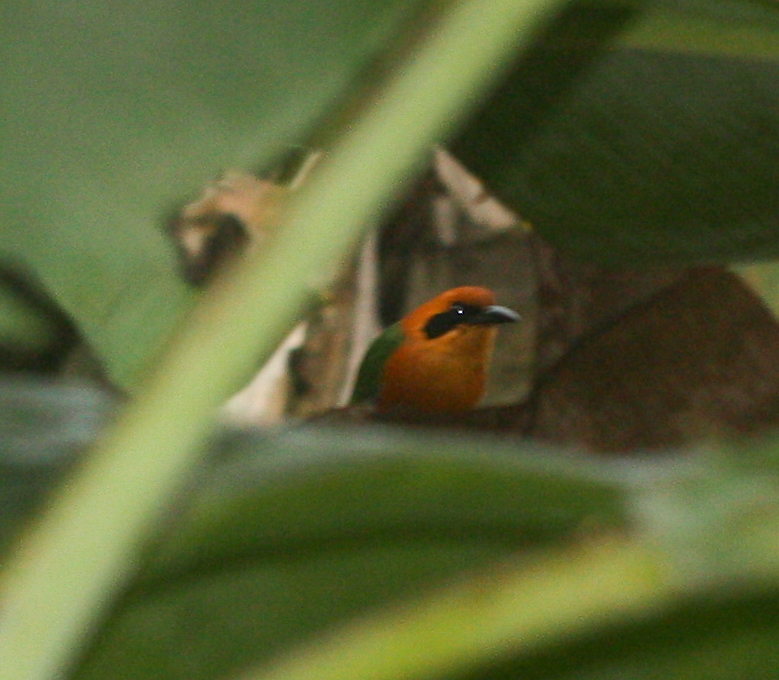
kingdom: Animalia
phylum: Chordata
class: Aves
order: Coraciiformes
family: Momotidae
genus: Baryphthengus
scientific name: Baryphthengus martii
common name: Rufous motmot
